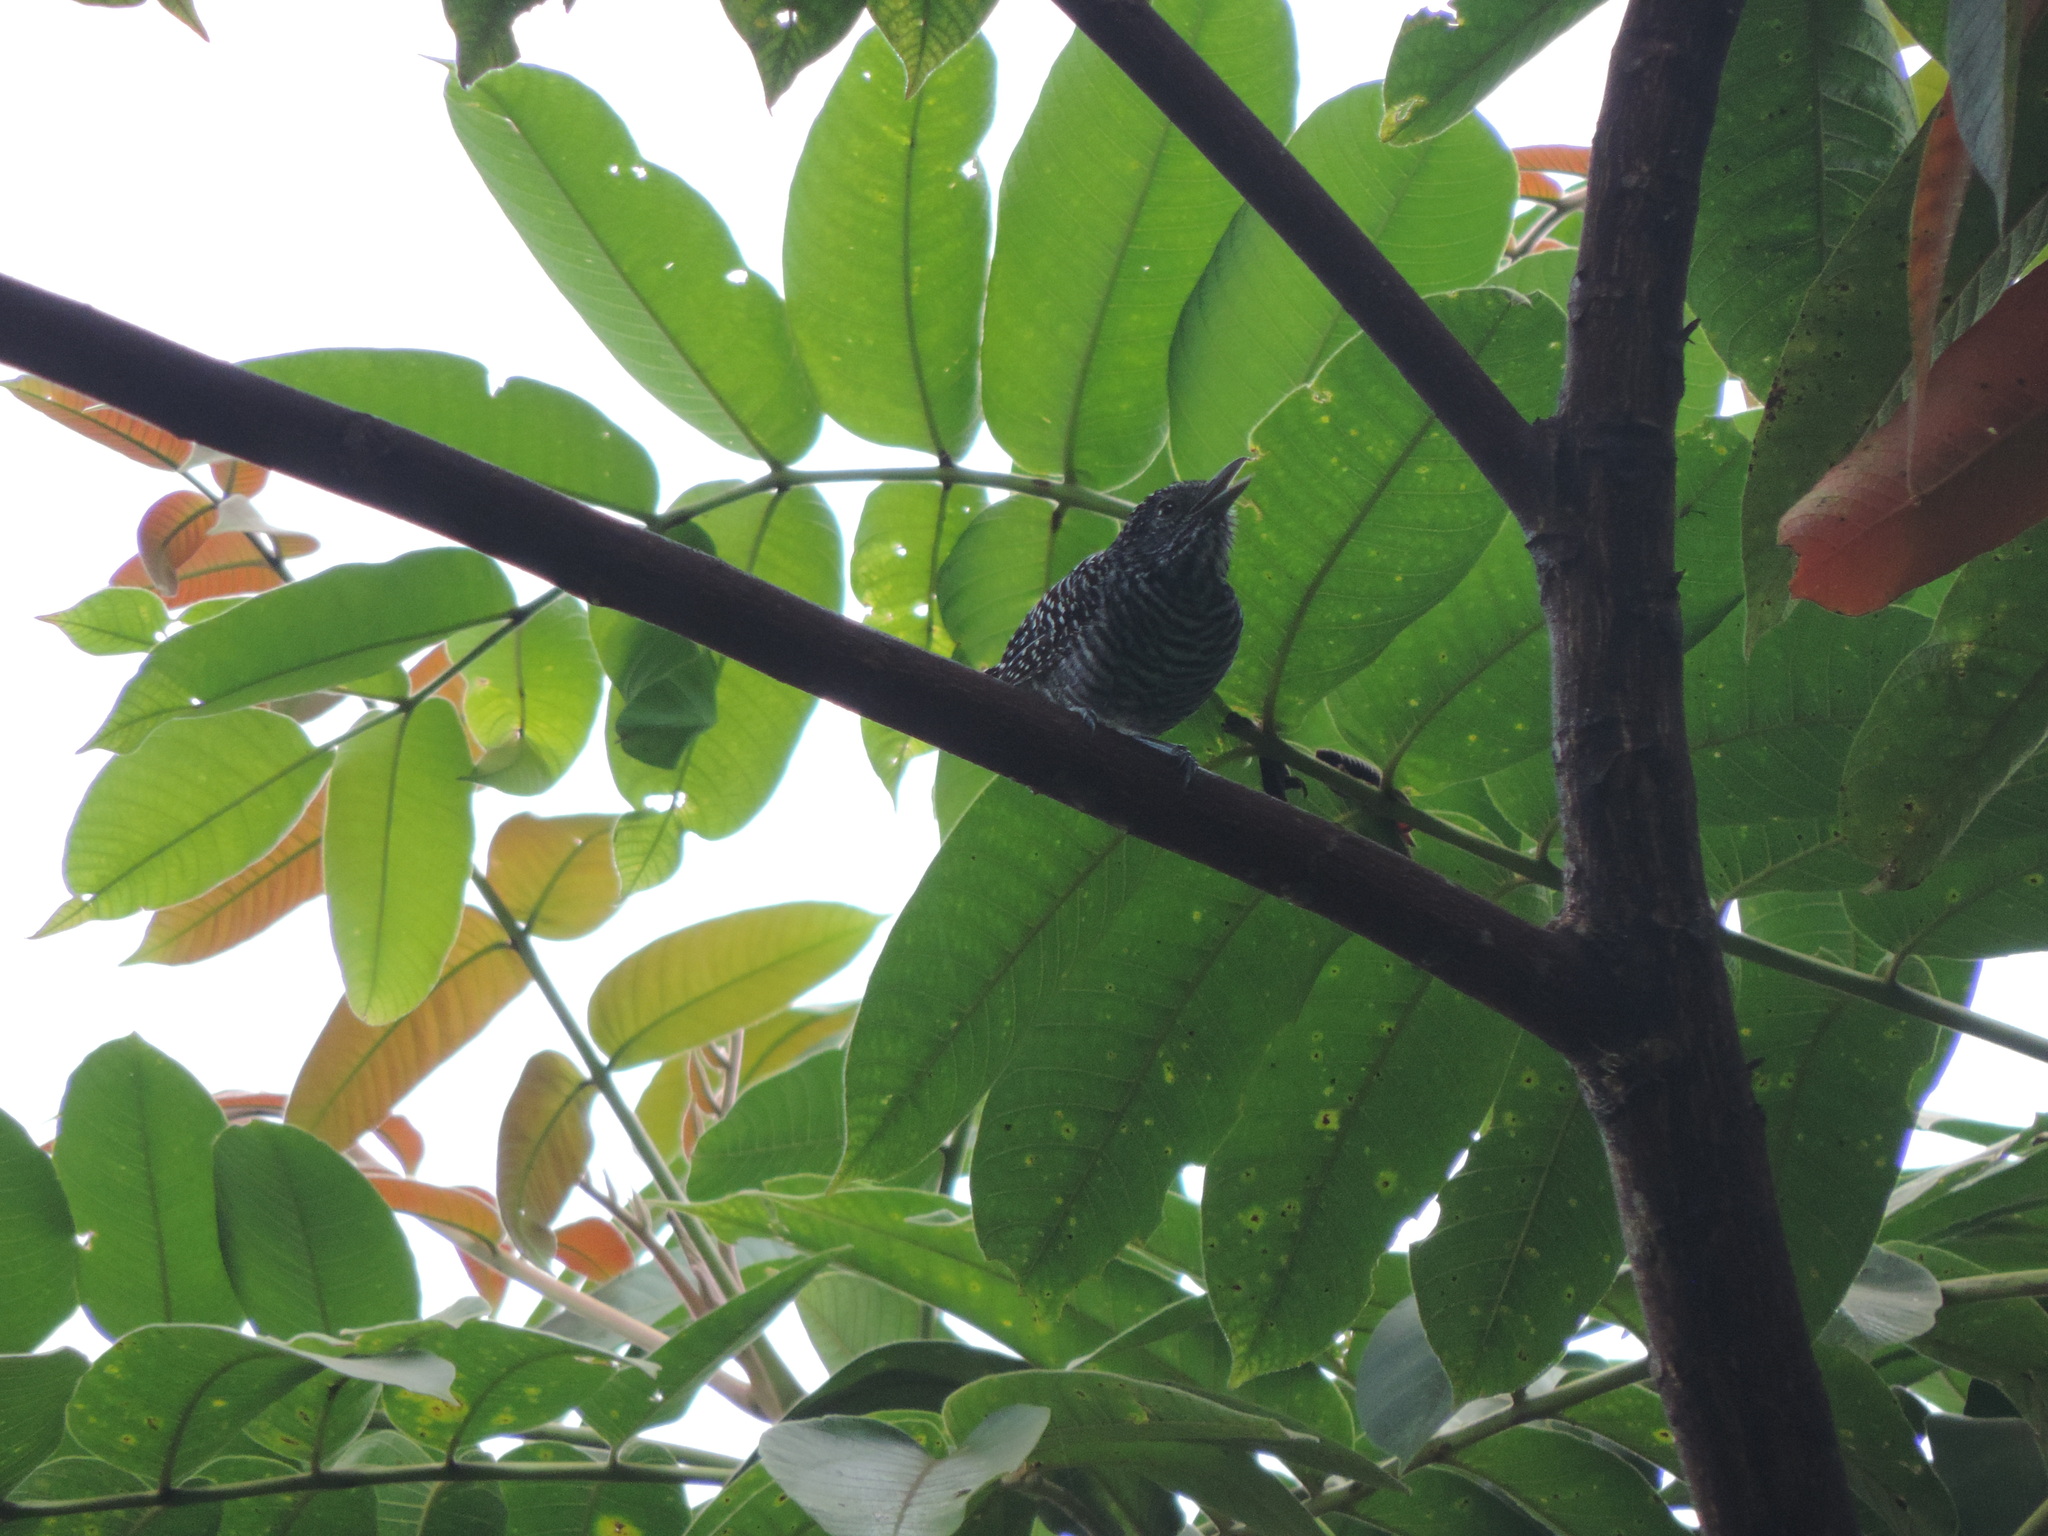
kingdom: Animalia
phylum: Chordata
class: Aves
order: Passeriformes
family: Thamnophilidae
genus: Thamnophilus
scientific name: Thamnophilus multistriatus
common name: Bar-crested antshrike
